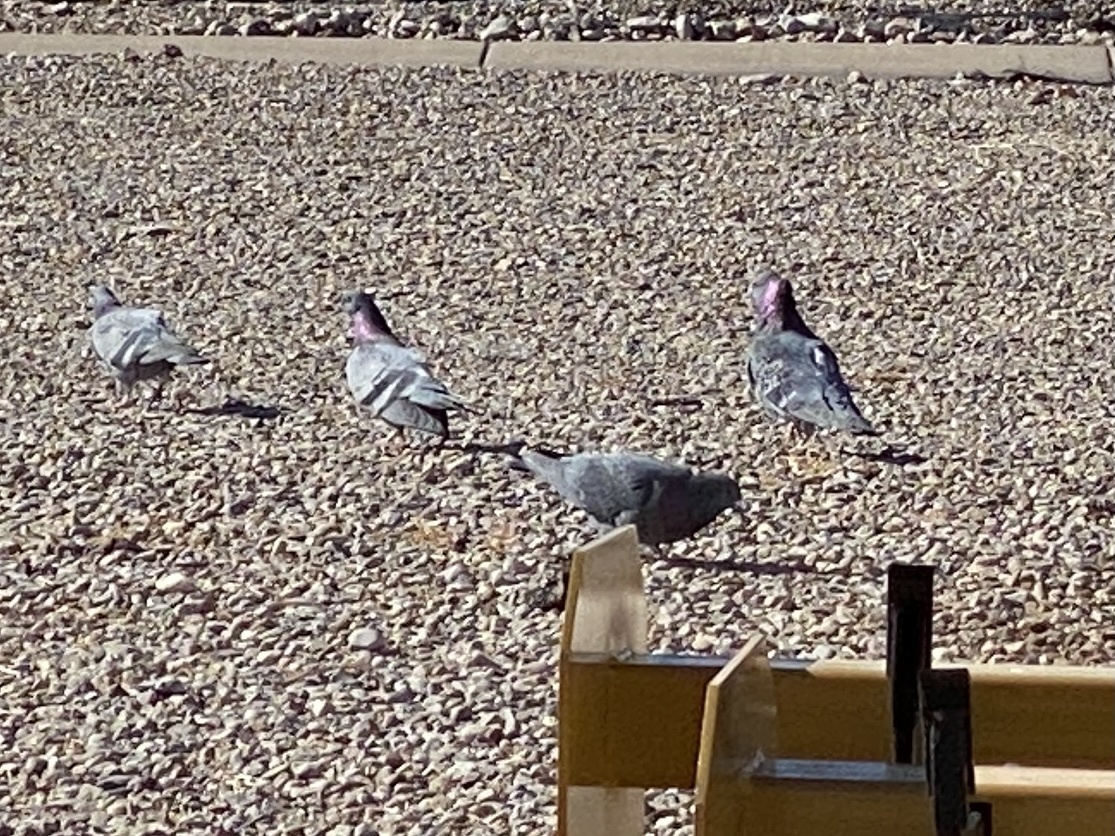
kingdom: Animalia
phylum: Chordata
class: Aves
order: Columbiformes
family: Columbidae
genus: Columba
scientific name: Columba livia
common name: Rock pigeon
